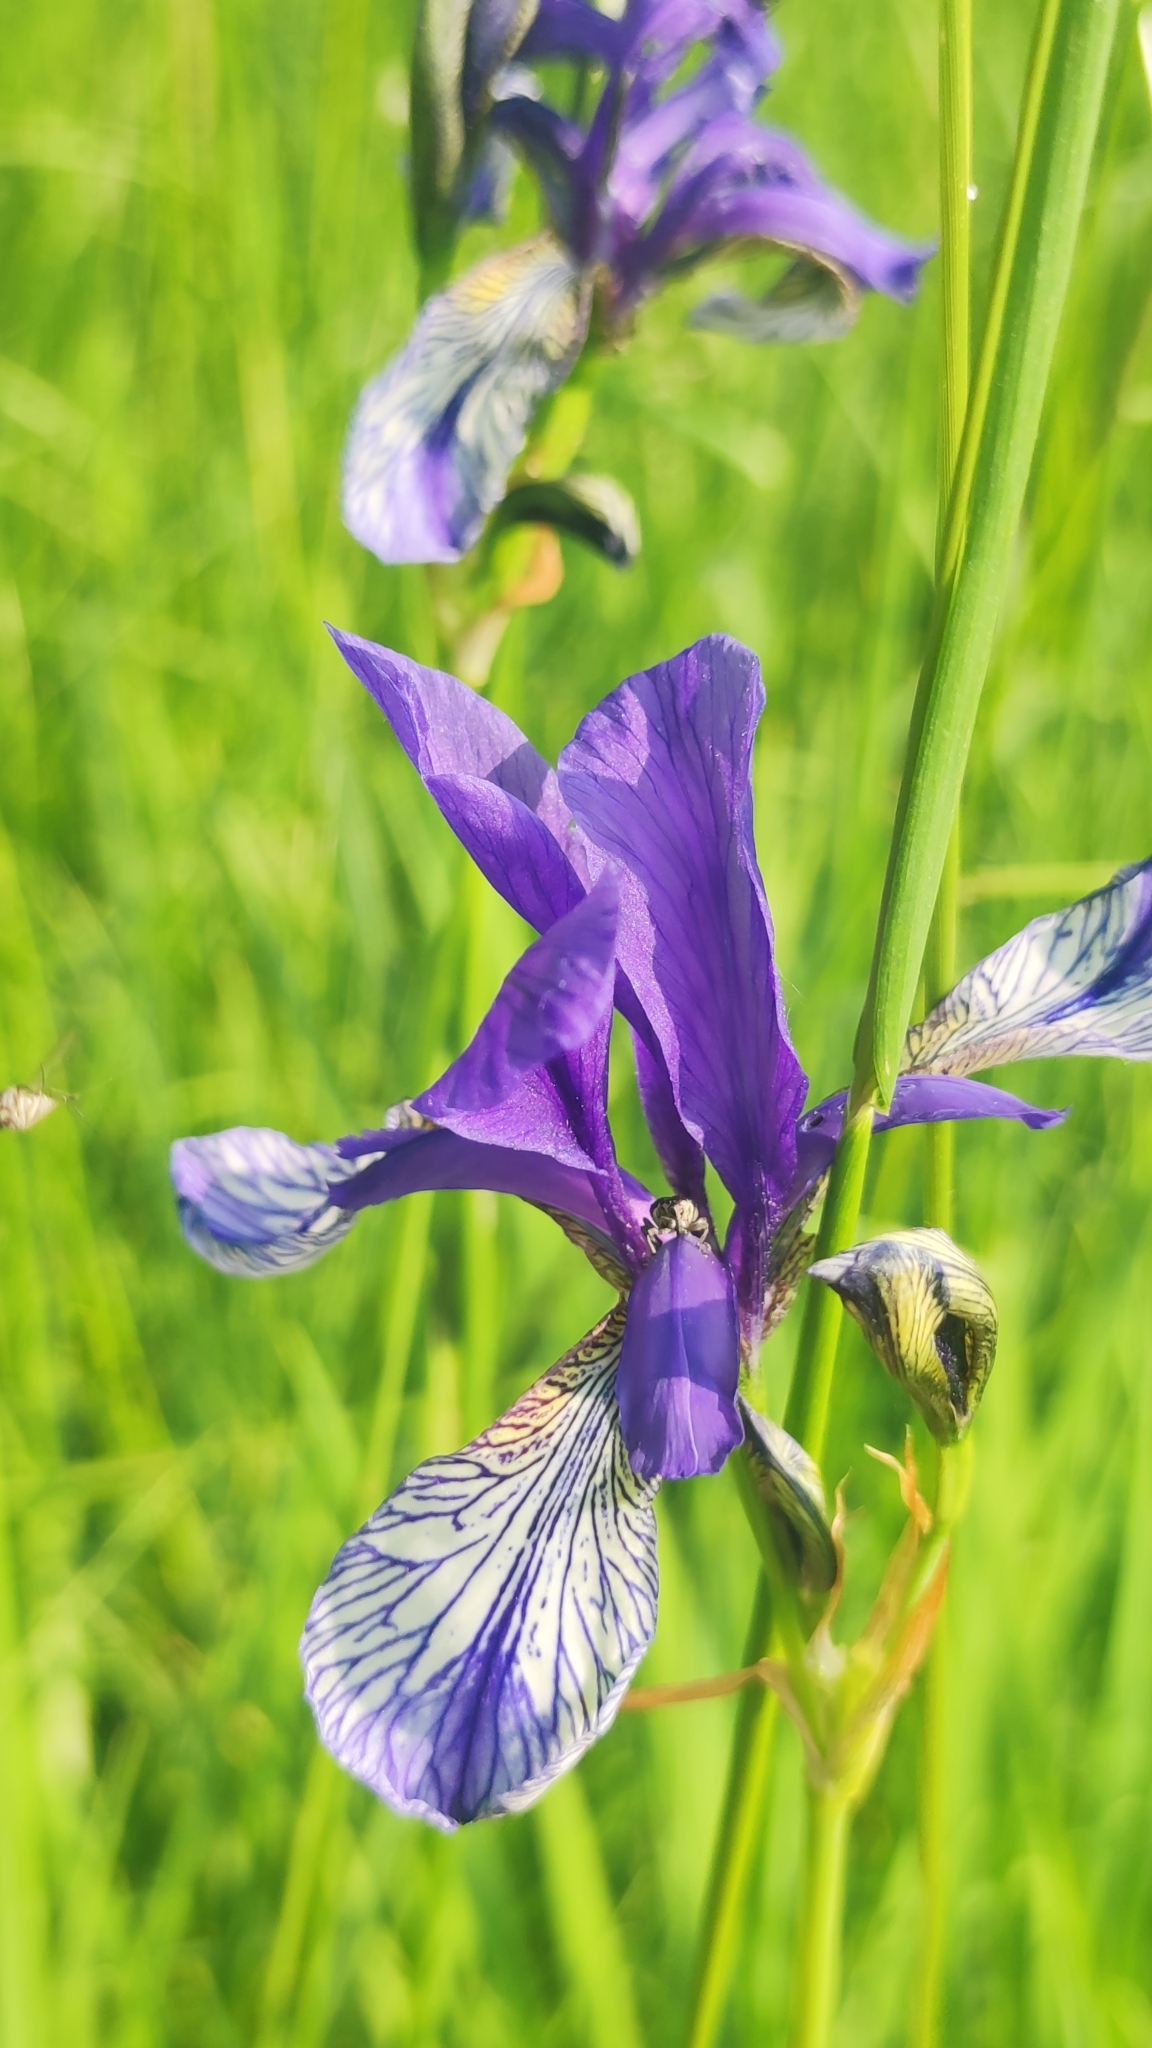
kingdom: Plantae
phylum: Tracheophyta
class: Liliopsida
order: Asparagales
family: Iridaceae
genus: Iris
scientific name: Iris sibirica
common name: Siberian iris
